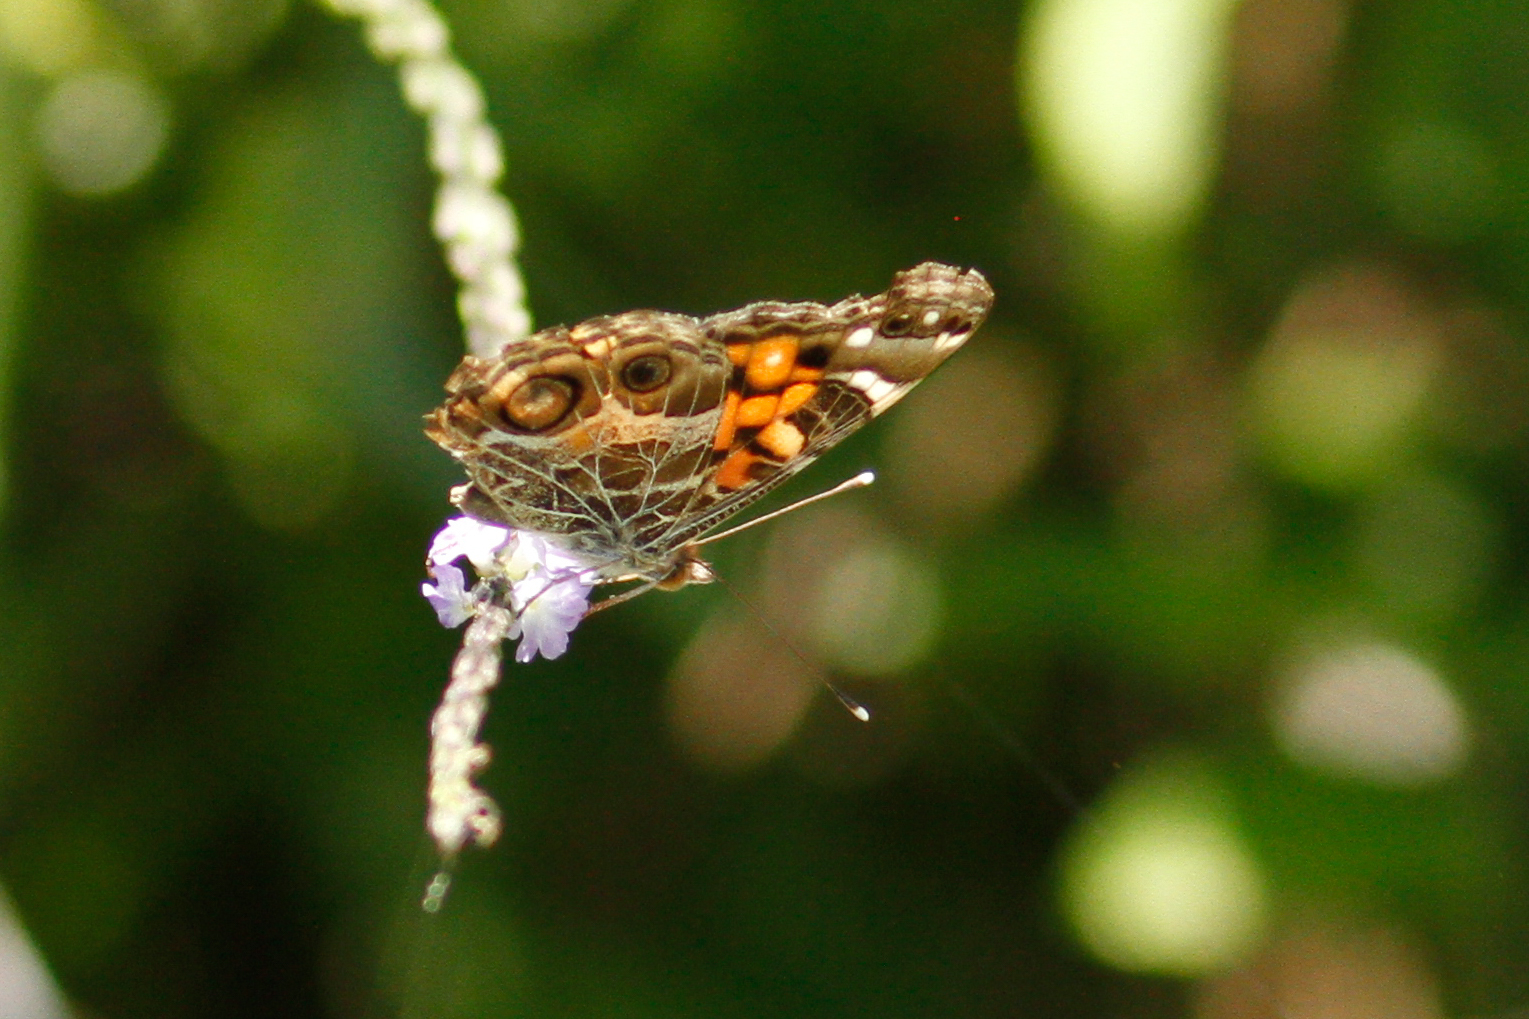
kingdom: Animalia
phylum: Arthropoda
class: Insecta
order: Lepidoptera
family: Nymphalidae
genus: Vanessa
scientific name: Vanessa virginiensis
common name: American lady
